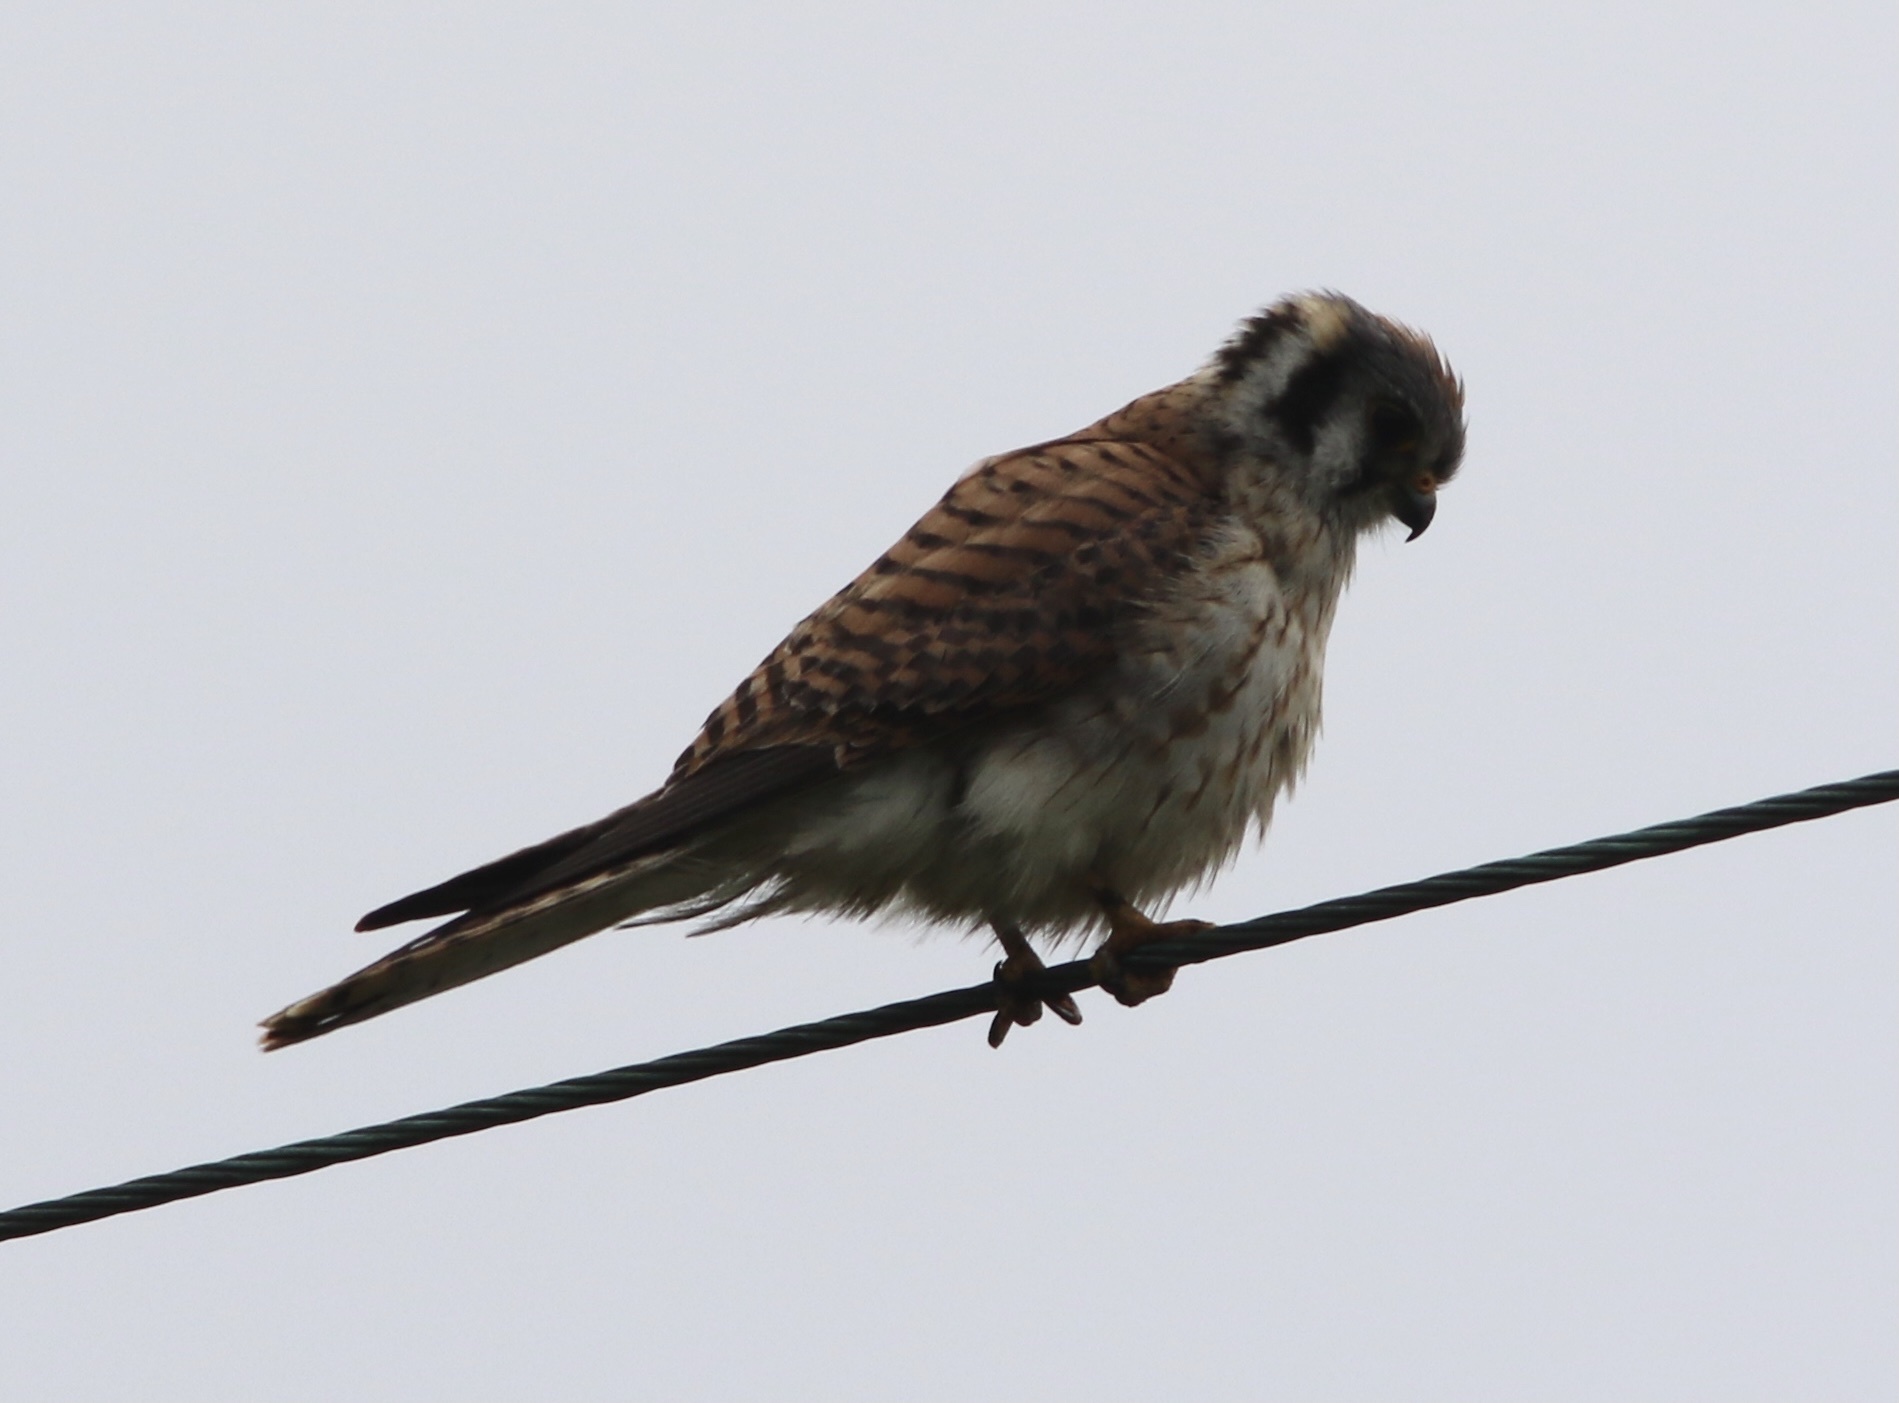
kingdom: Animalia
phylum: Chordata
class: Aves
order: Falconiformes
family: Falconidae
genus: Falco
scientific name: Falco sparverius
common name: American kestrel
